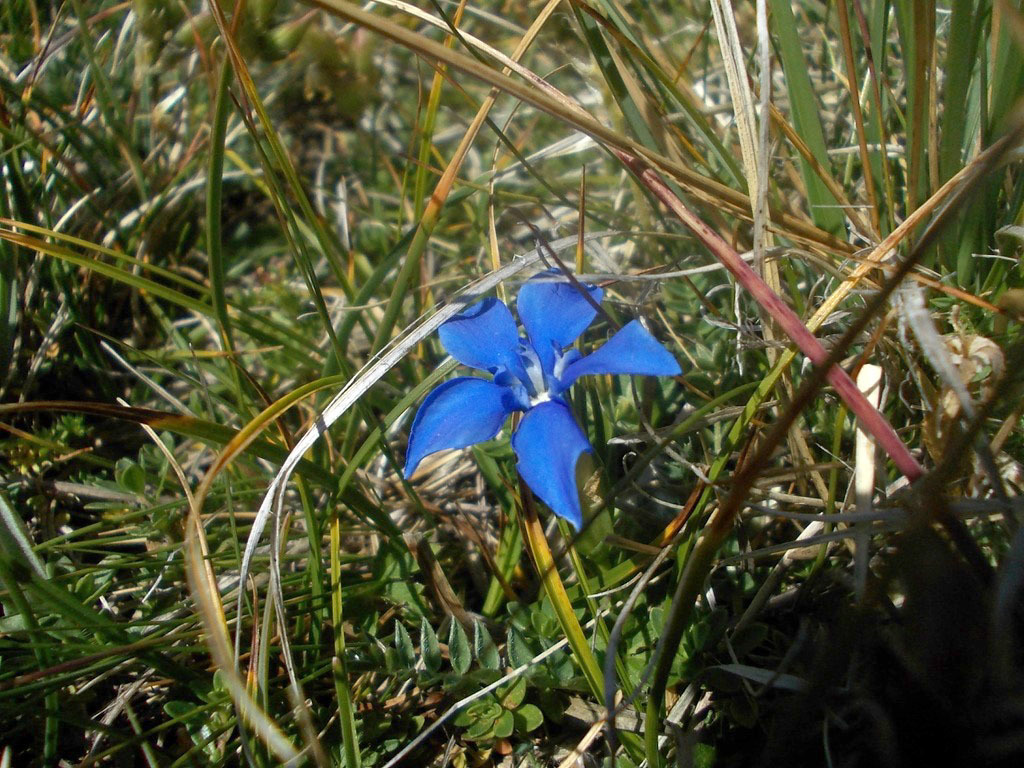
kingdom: Plantae
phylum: Tracheophyta
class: Magnoliopsida
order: Gentianales
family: Gentianaceae
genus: Gentiana
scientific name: Gentiana verna
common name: Spring gentian
